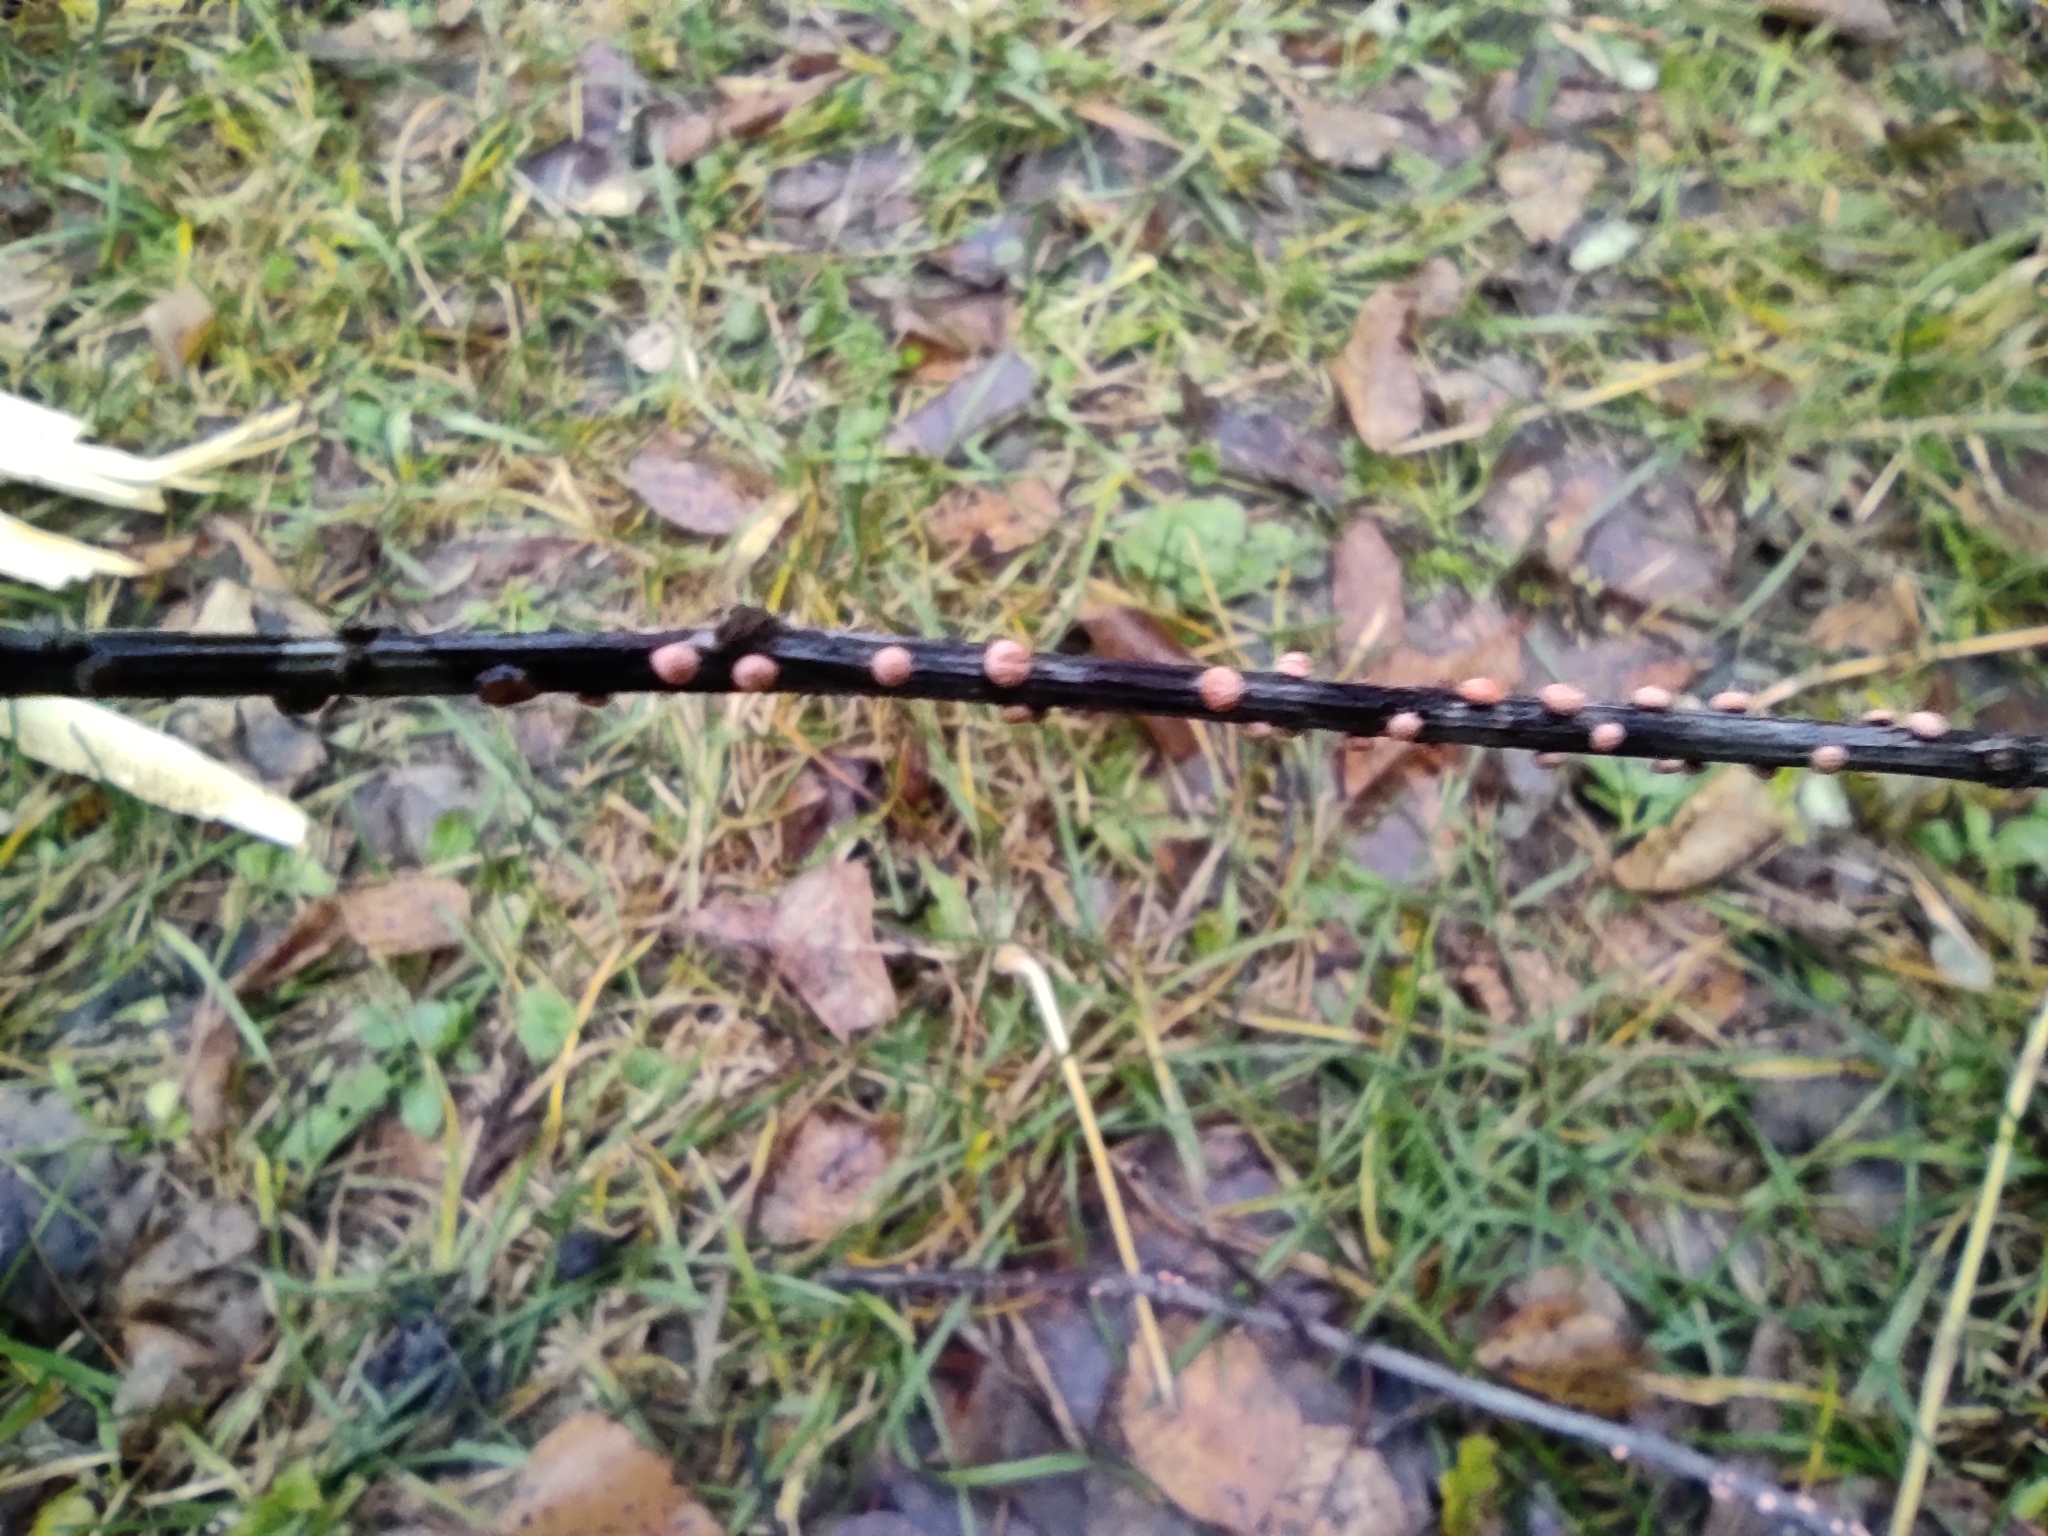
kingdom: Fungi
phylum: Ascomycota
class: Sordariomycetes
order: Hypocreales
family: Nectriaceae
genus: Nectria
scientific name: Nectria cinnabarina
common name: Coral spot
